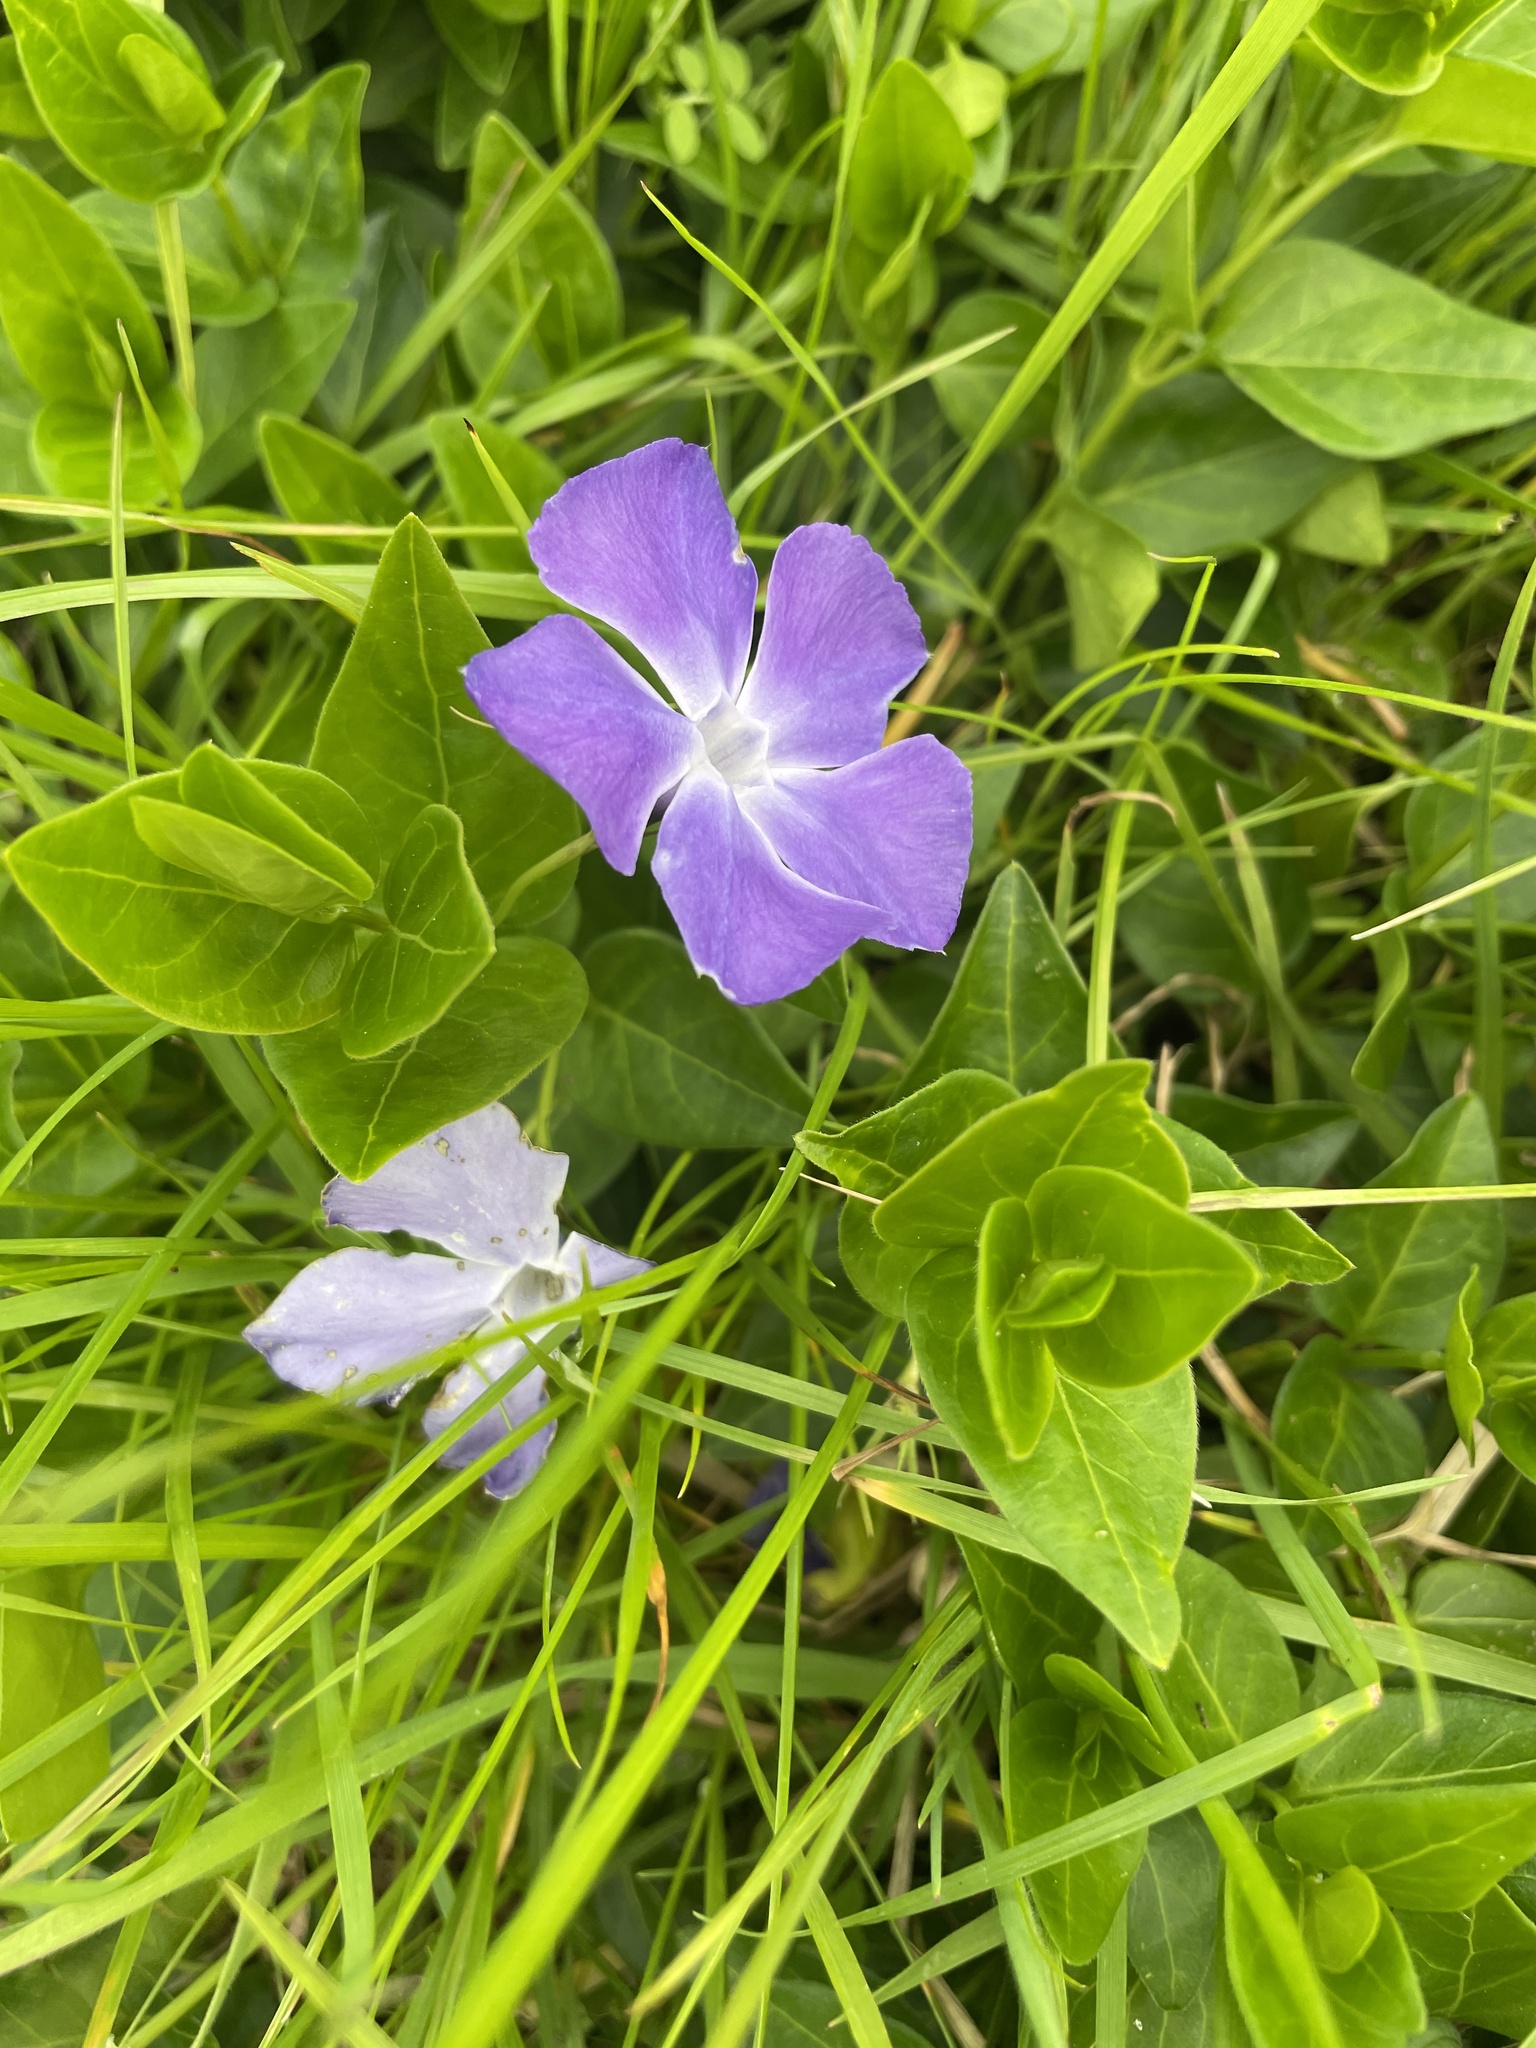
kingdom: Plantae
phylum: Tracheophyta
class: Magnoliopsida
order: Gentianales
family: Apocynaceae
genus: Vinca
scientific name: Vinca major
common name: Greater periwinkle
